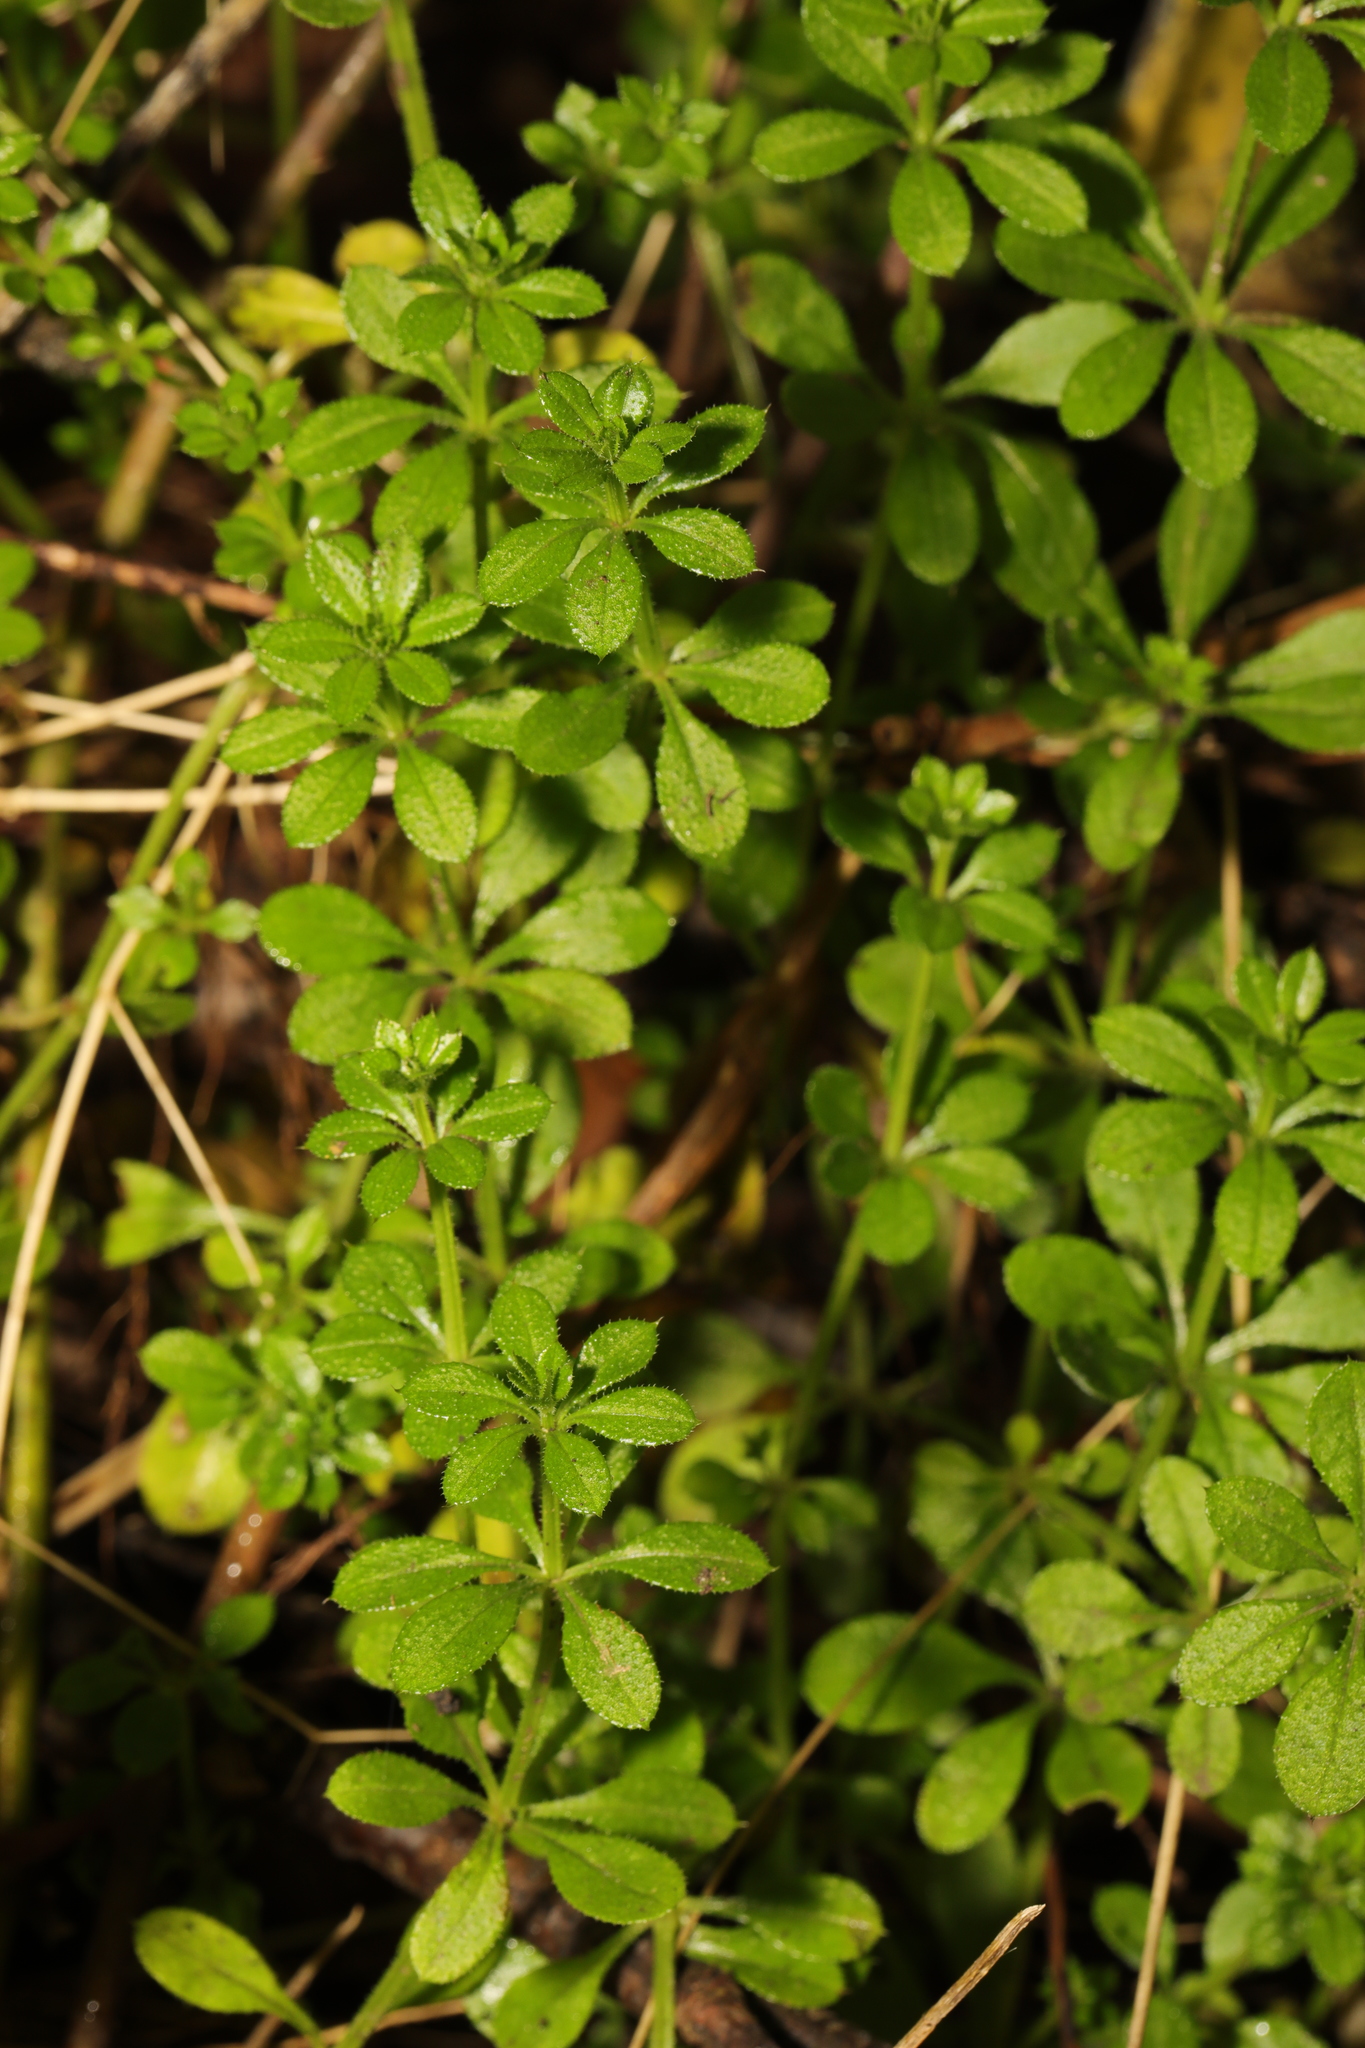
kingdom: Plantae
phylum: Tracheophyta
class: Magnoliopsida
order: Gentianales
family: Rubiaceae
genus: Galium
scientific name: Galium aparine
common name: Cleavers
